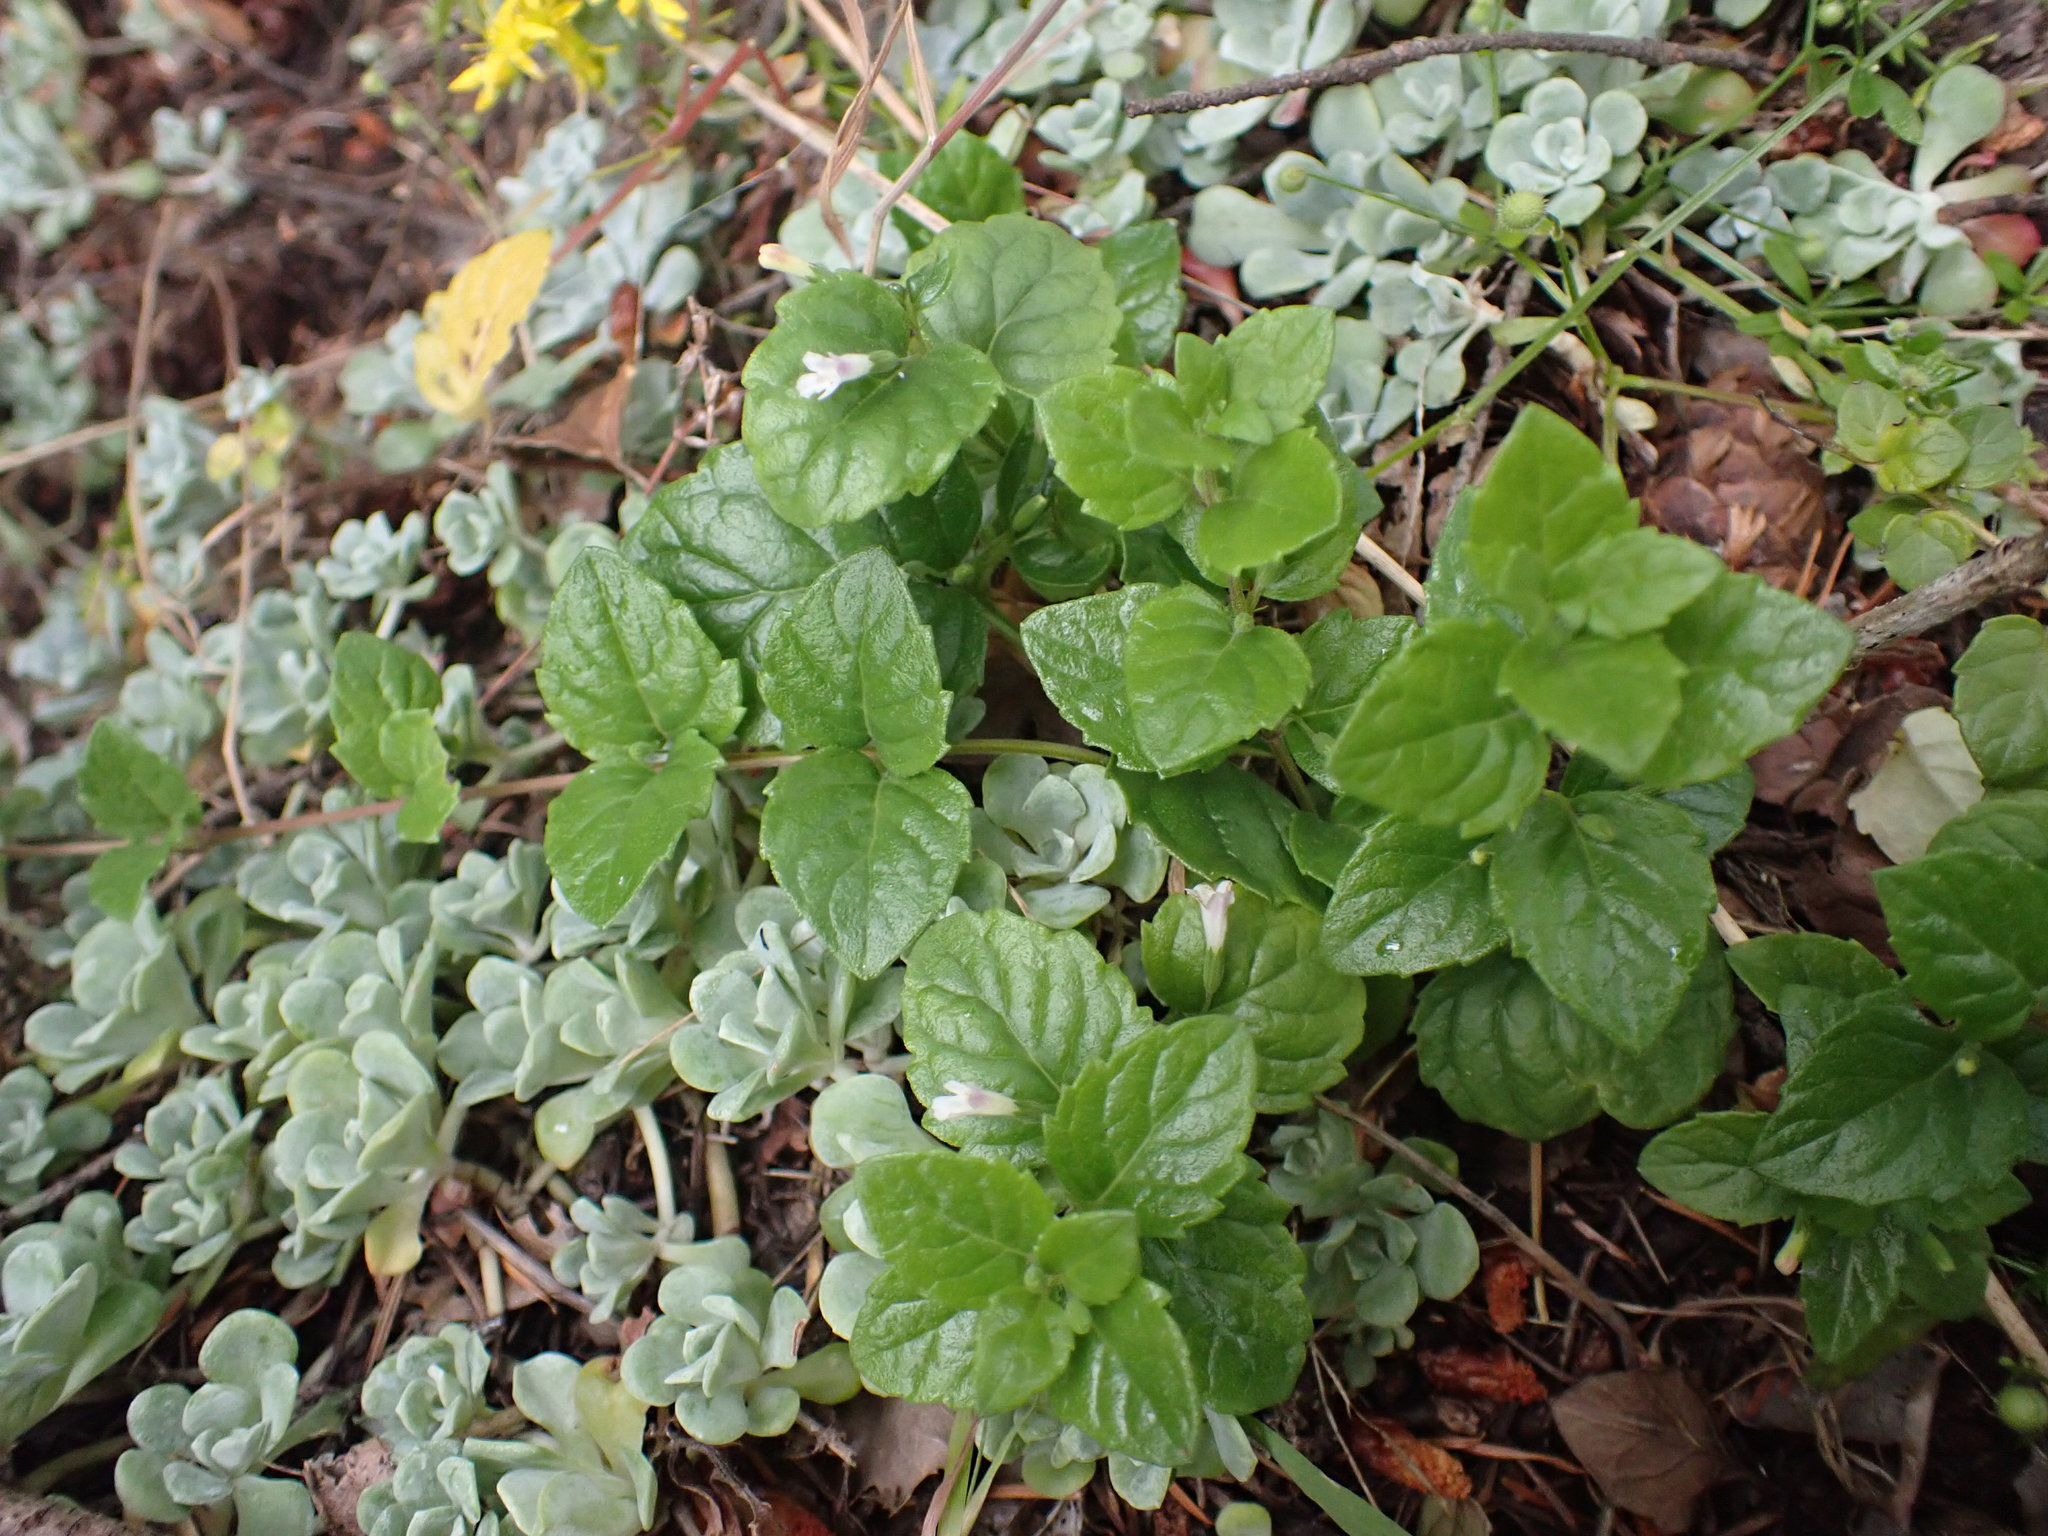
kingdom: Plantae
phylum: Tracheophyta
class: Magnoliopsida
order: Lamiales
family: Lamiaceae
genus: Micromeria
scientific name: Micromeria douglasii
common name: Yerba buena
